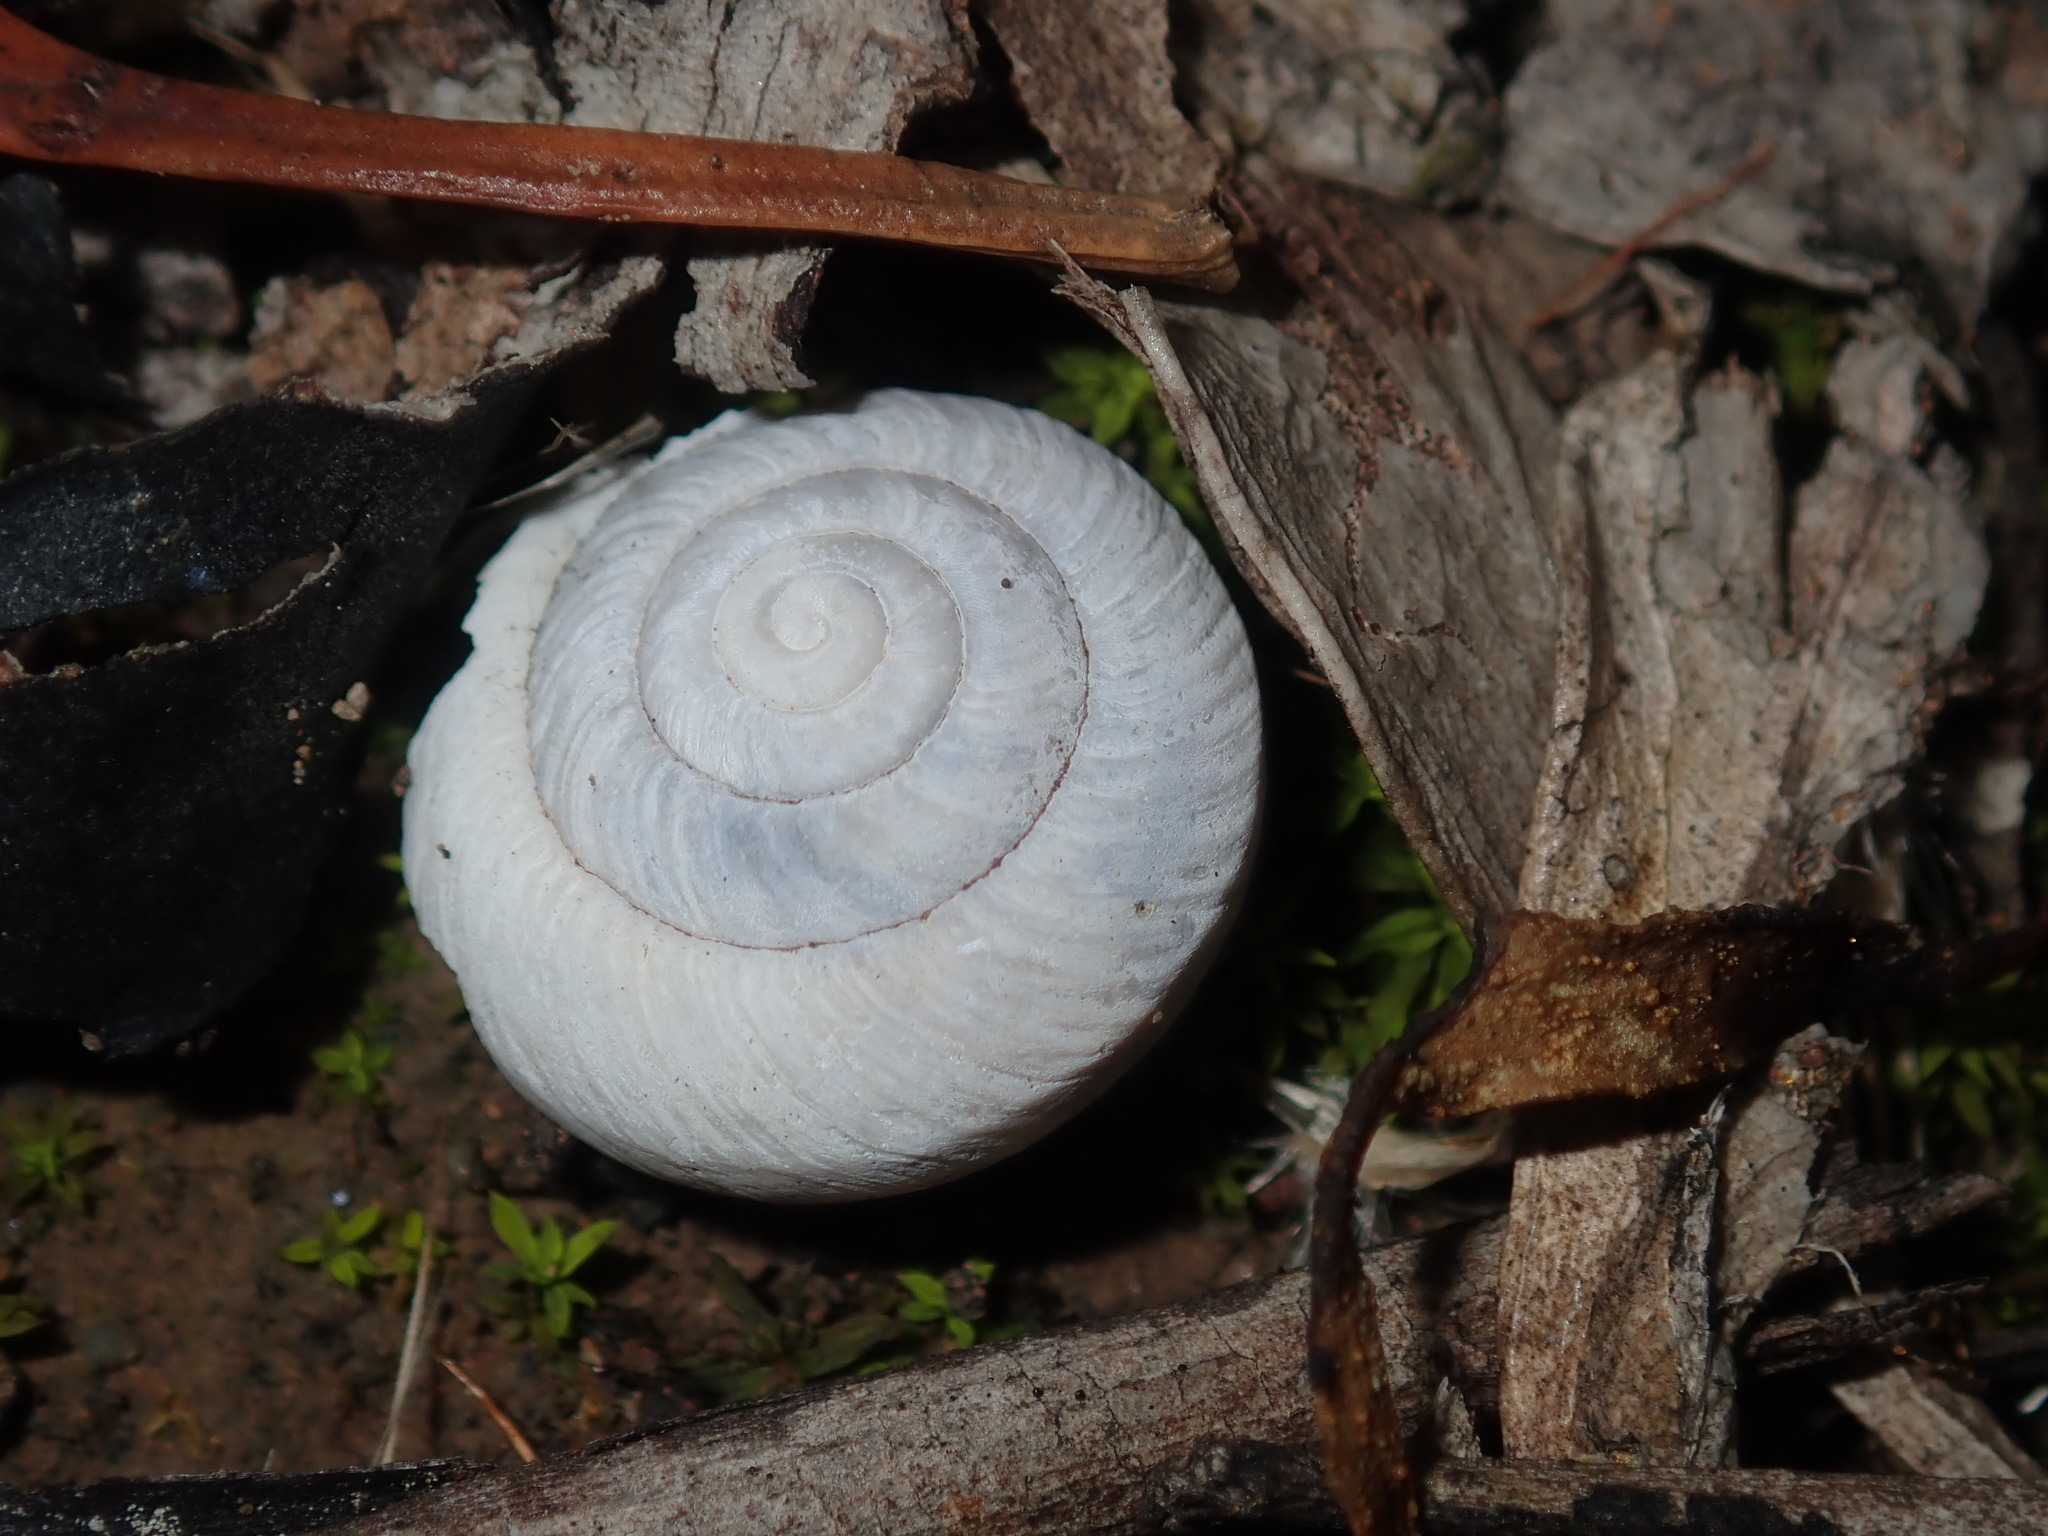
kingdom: Animalia
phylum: Mollusca
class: Gastropoda
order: Stylommatophora
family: Camaenidae
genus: Sauroconcha
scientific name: Sauroconcha sheai
